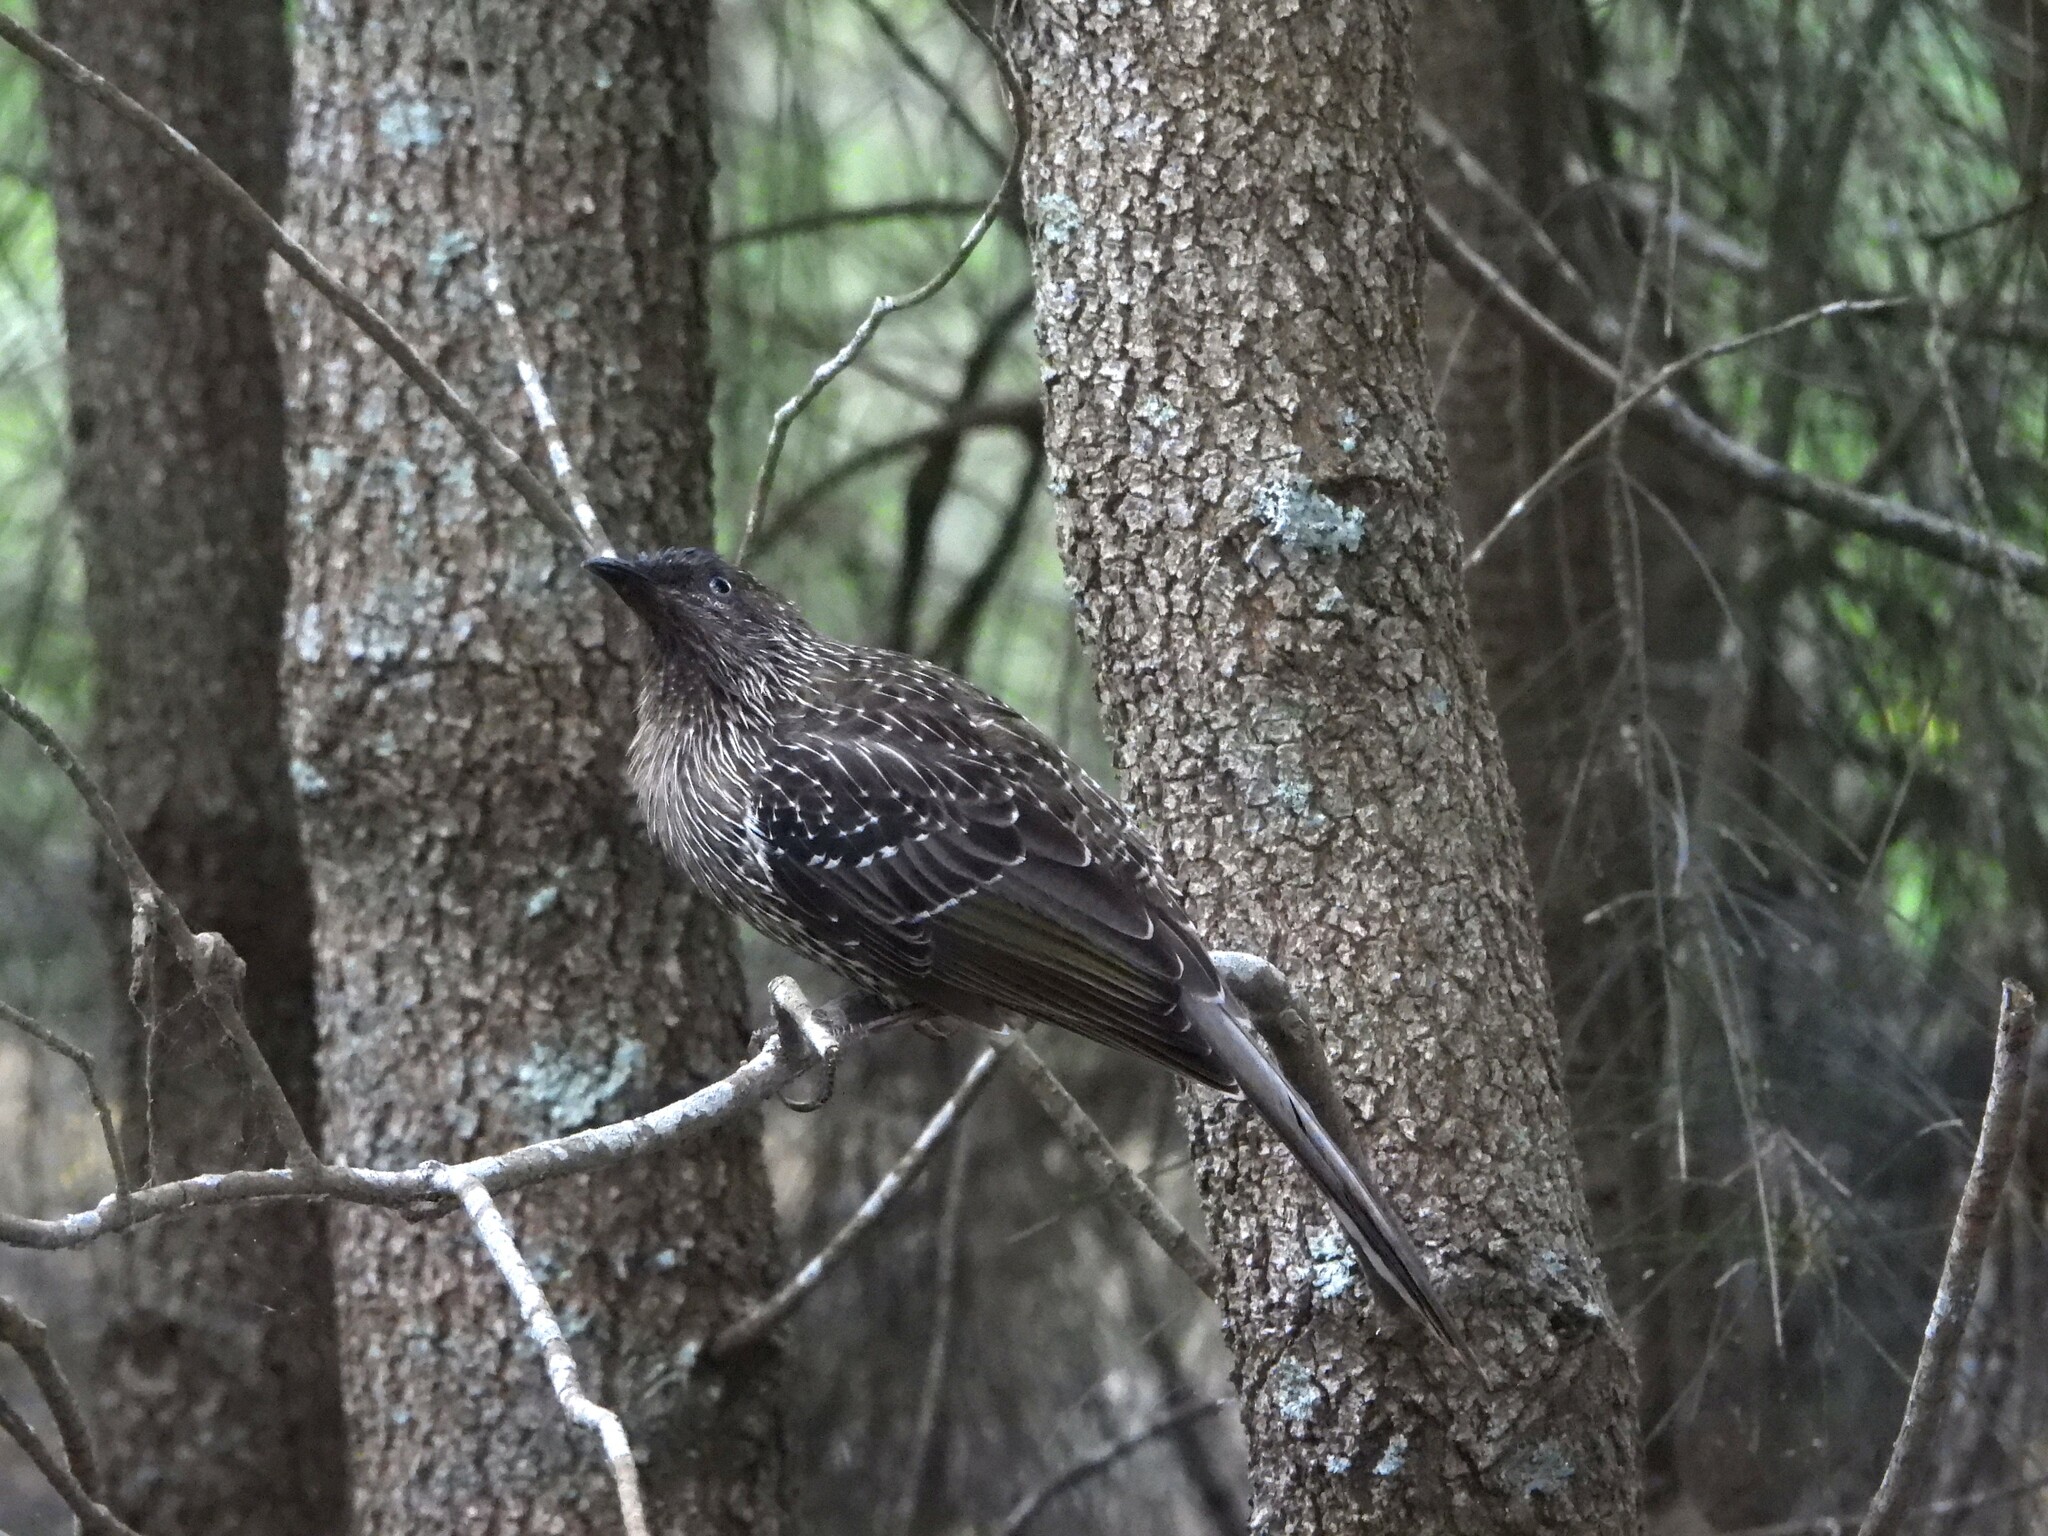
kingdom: Animalia
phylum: Chordata
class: Aves
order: Passeriformes
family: Meliphagidae
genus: Anthochaera
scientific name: Anthochaera chrysoptera
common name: Little wattlebird
